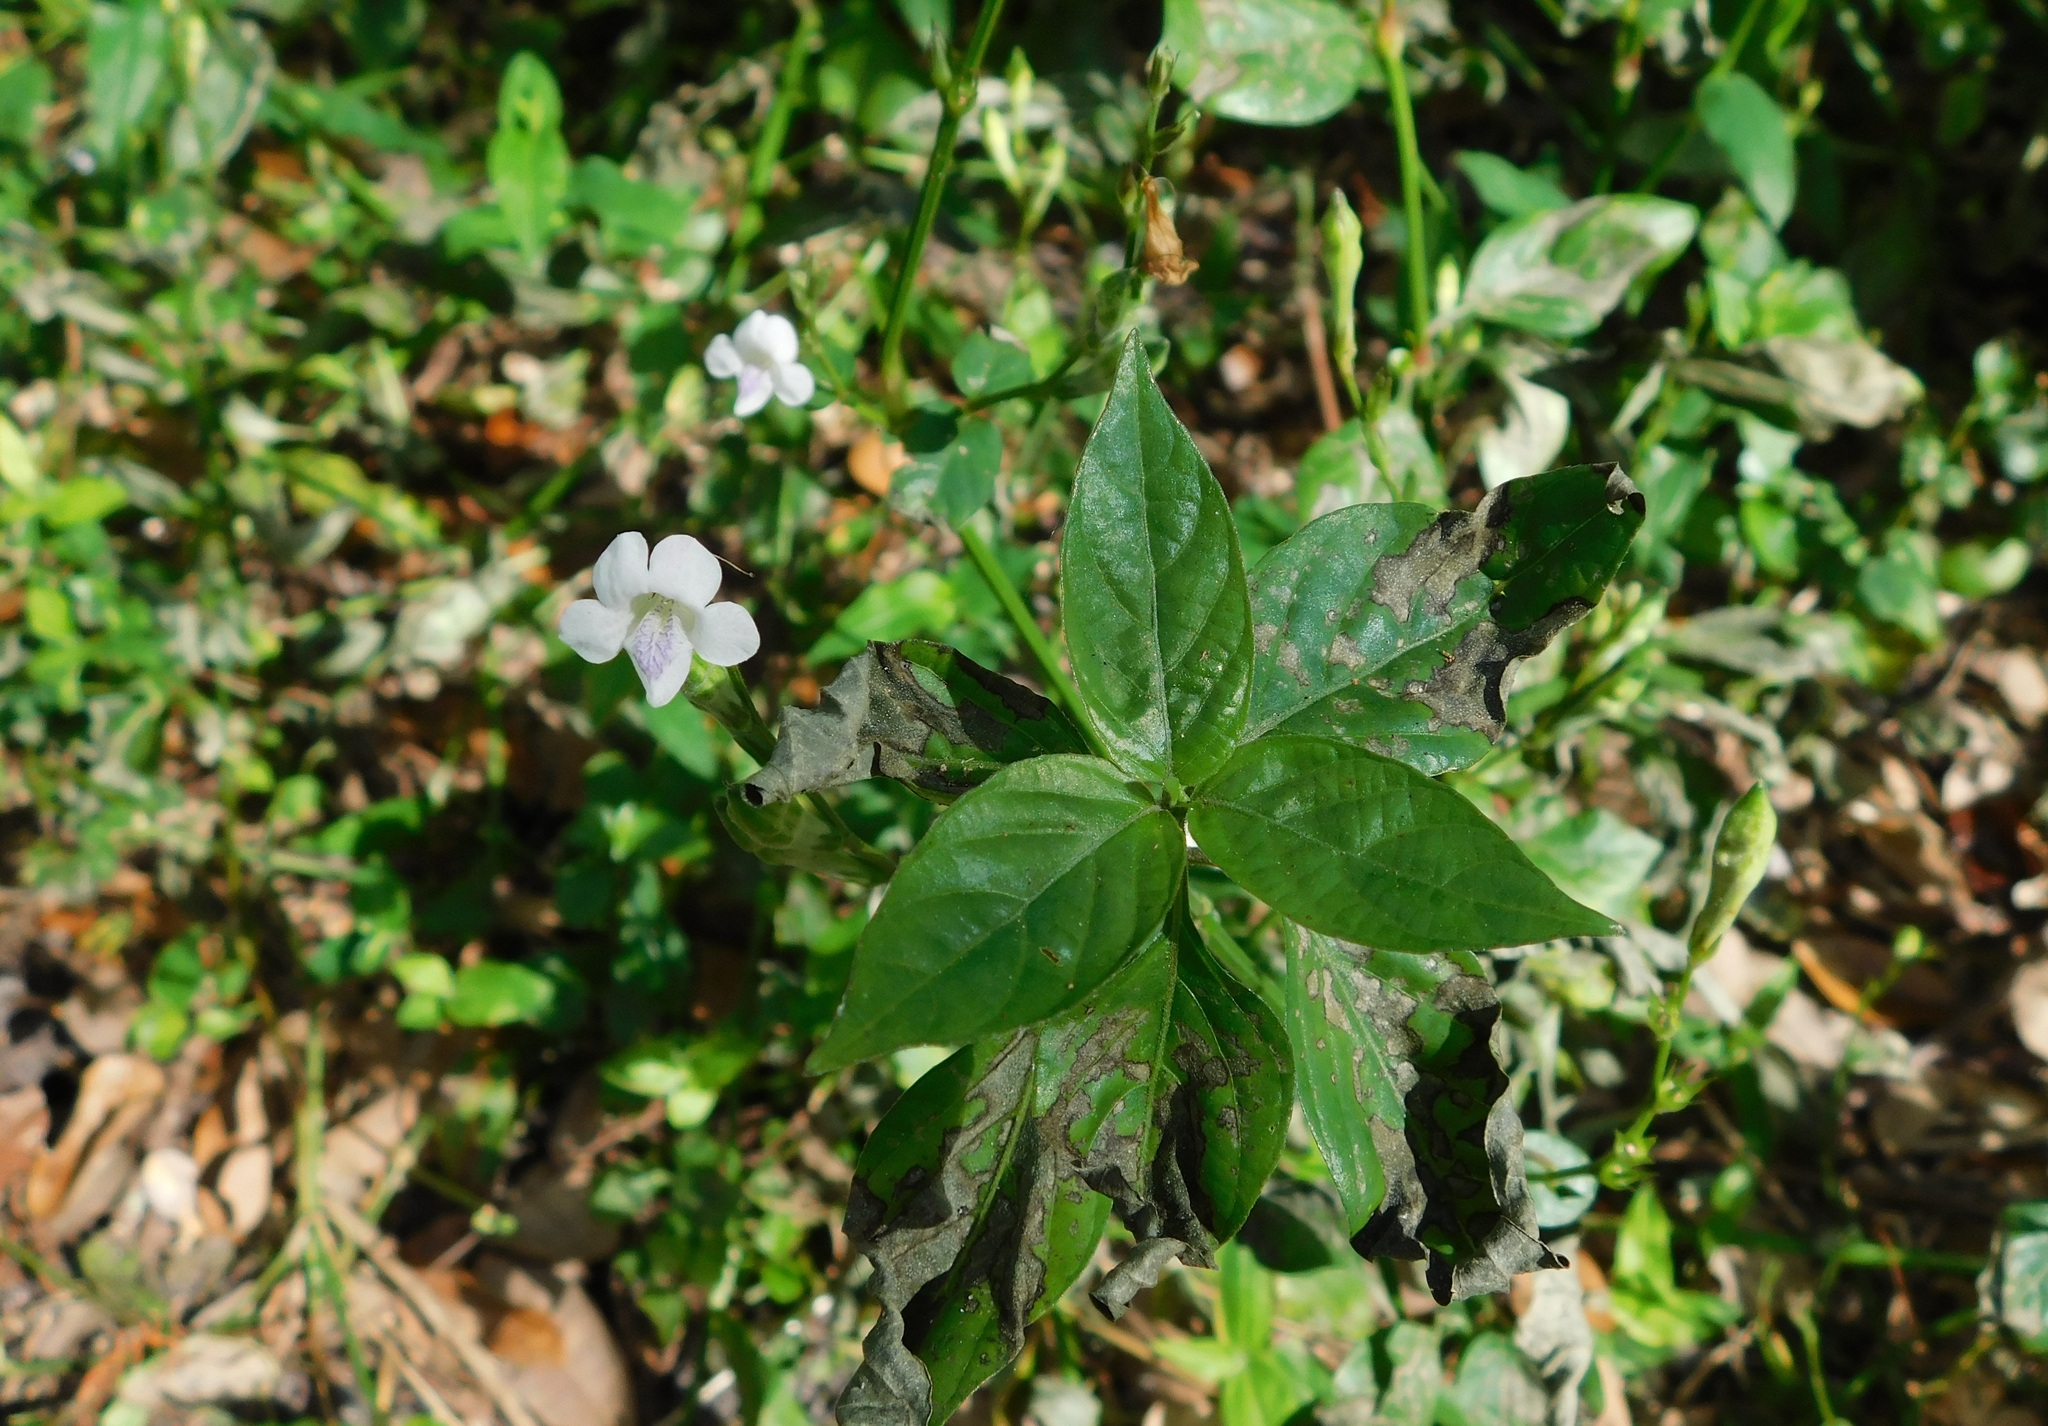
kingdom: Plantae
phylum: Tracheophyta
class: Magnoliopsida
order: Lamiales
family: Acanthaceae
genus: Asystasia
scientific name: Asystasia intrusa
